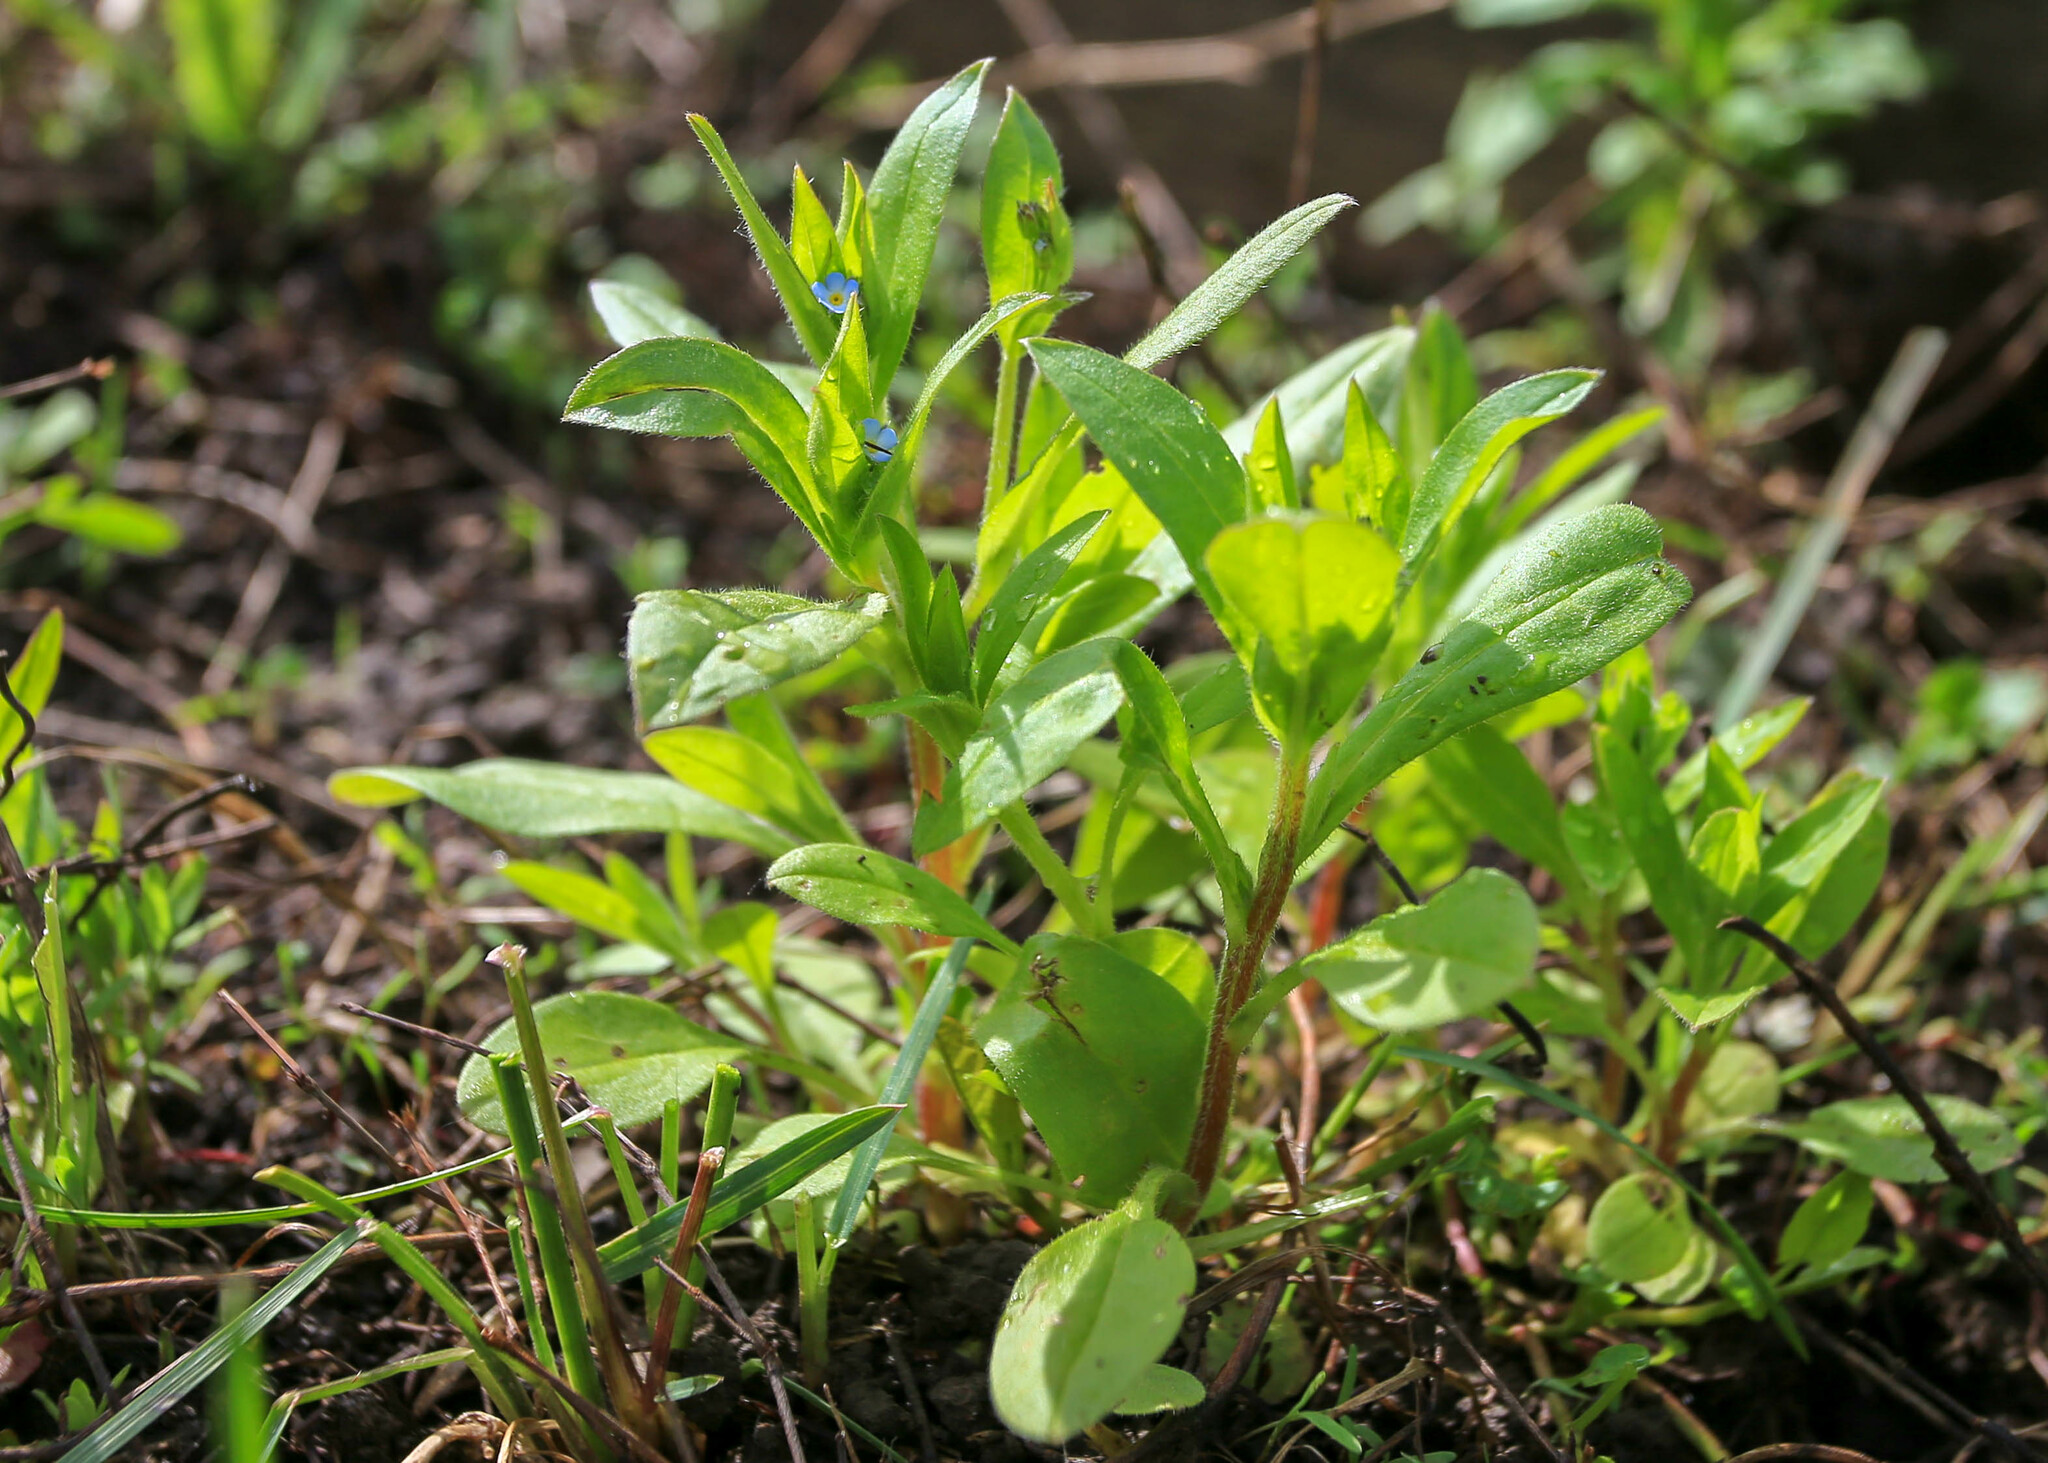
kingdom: Plantae
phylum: Tracheophyta
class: Magnoliopsida
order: Boraginales
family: Boraginaceae
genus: Myosotis
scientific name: Myosotis sparsiflora
